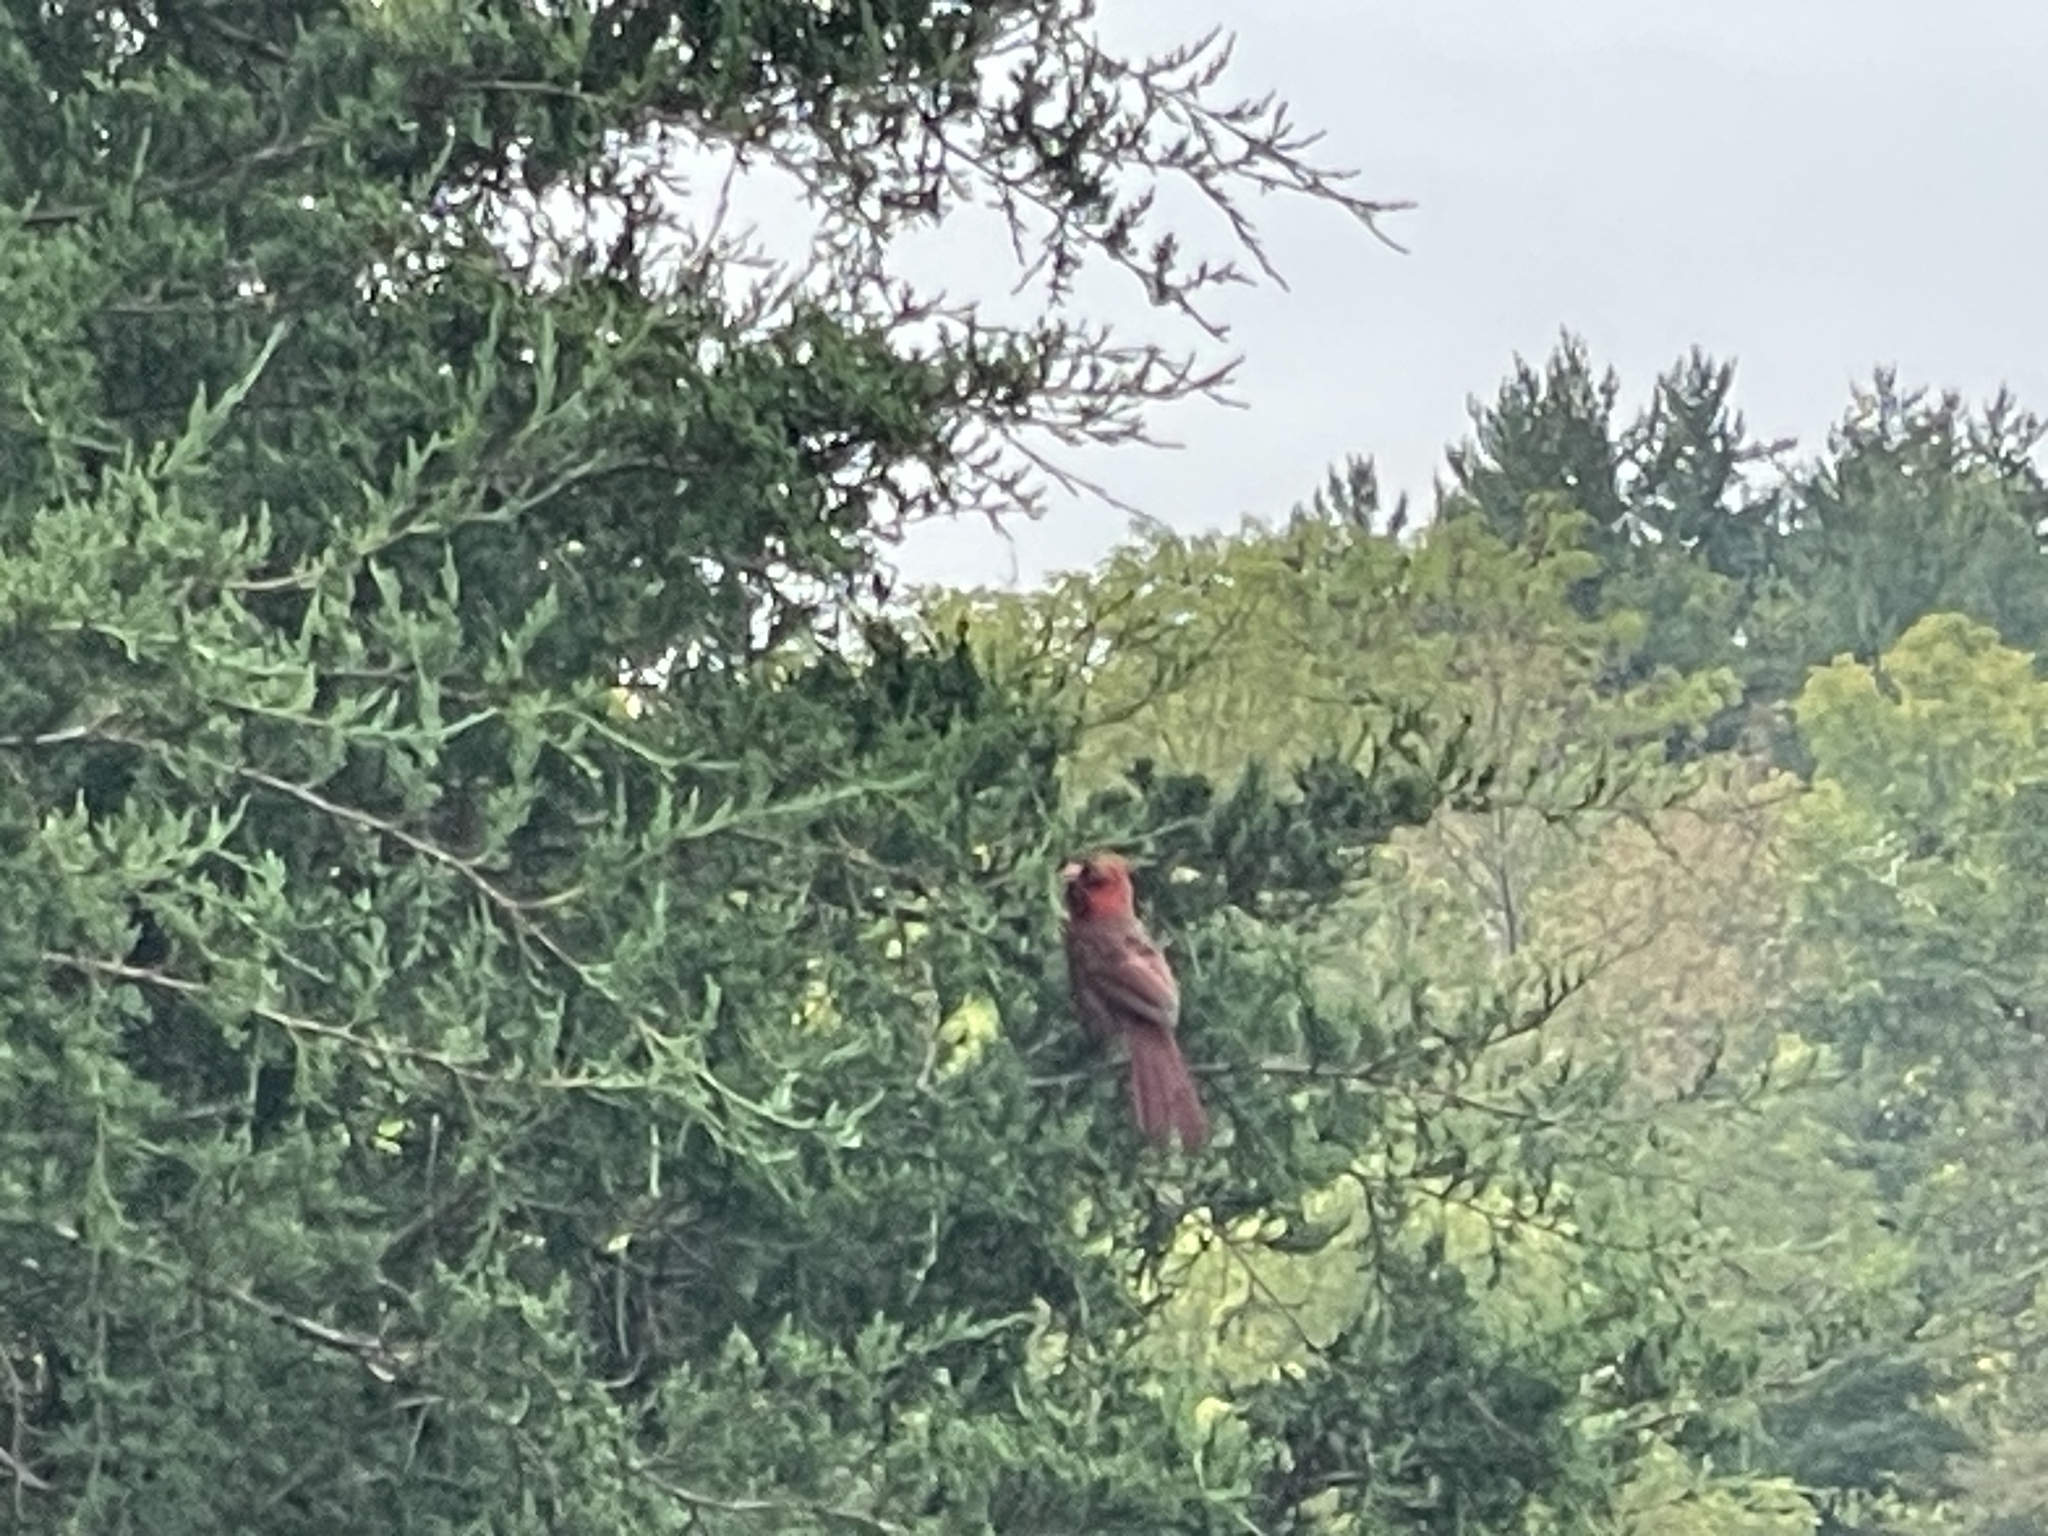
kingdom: Animalia
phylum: Chordata
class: Aves
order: Passeriformes
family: Cardinalidae
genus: Cardinalis
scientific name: Cardinalis cardinalis
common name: Northern cardinal
